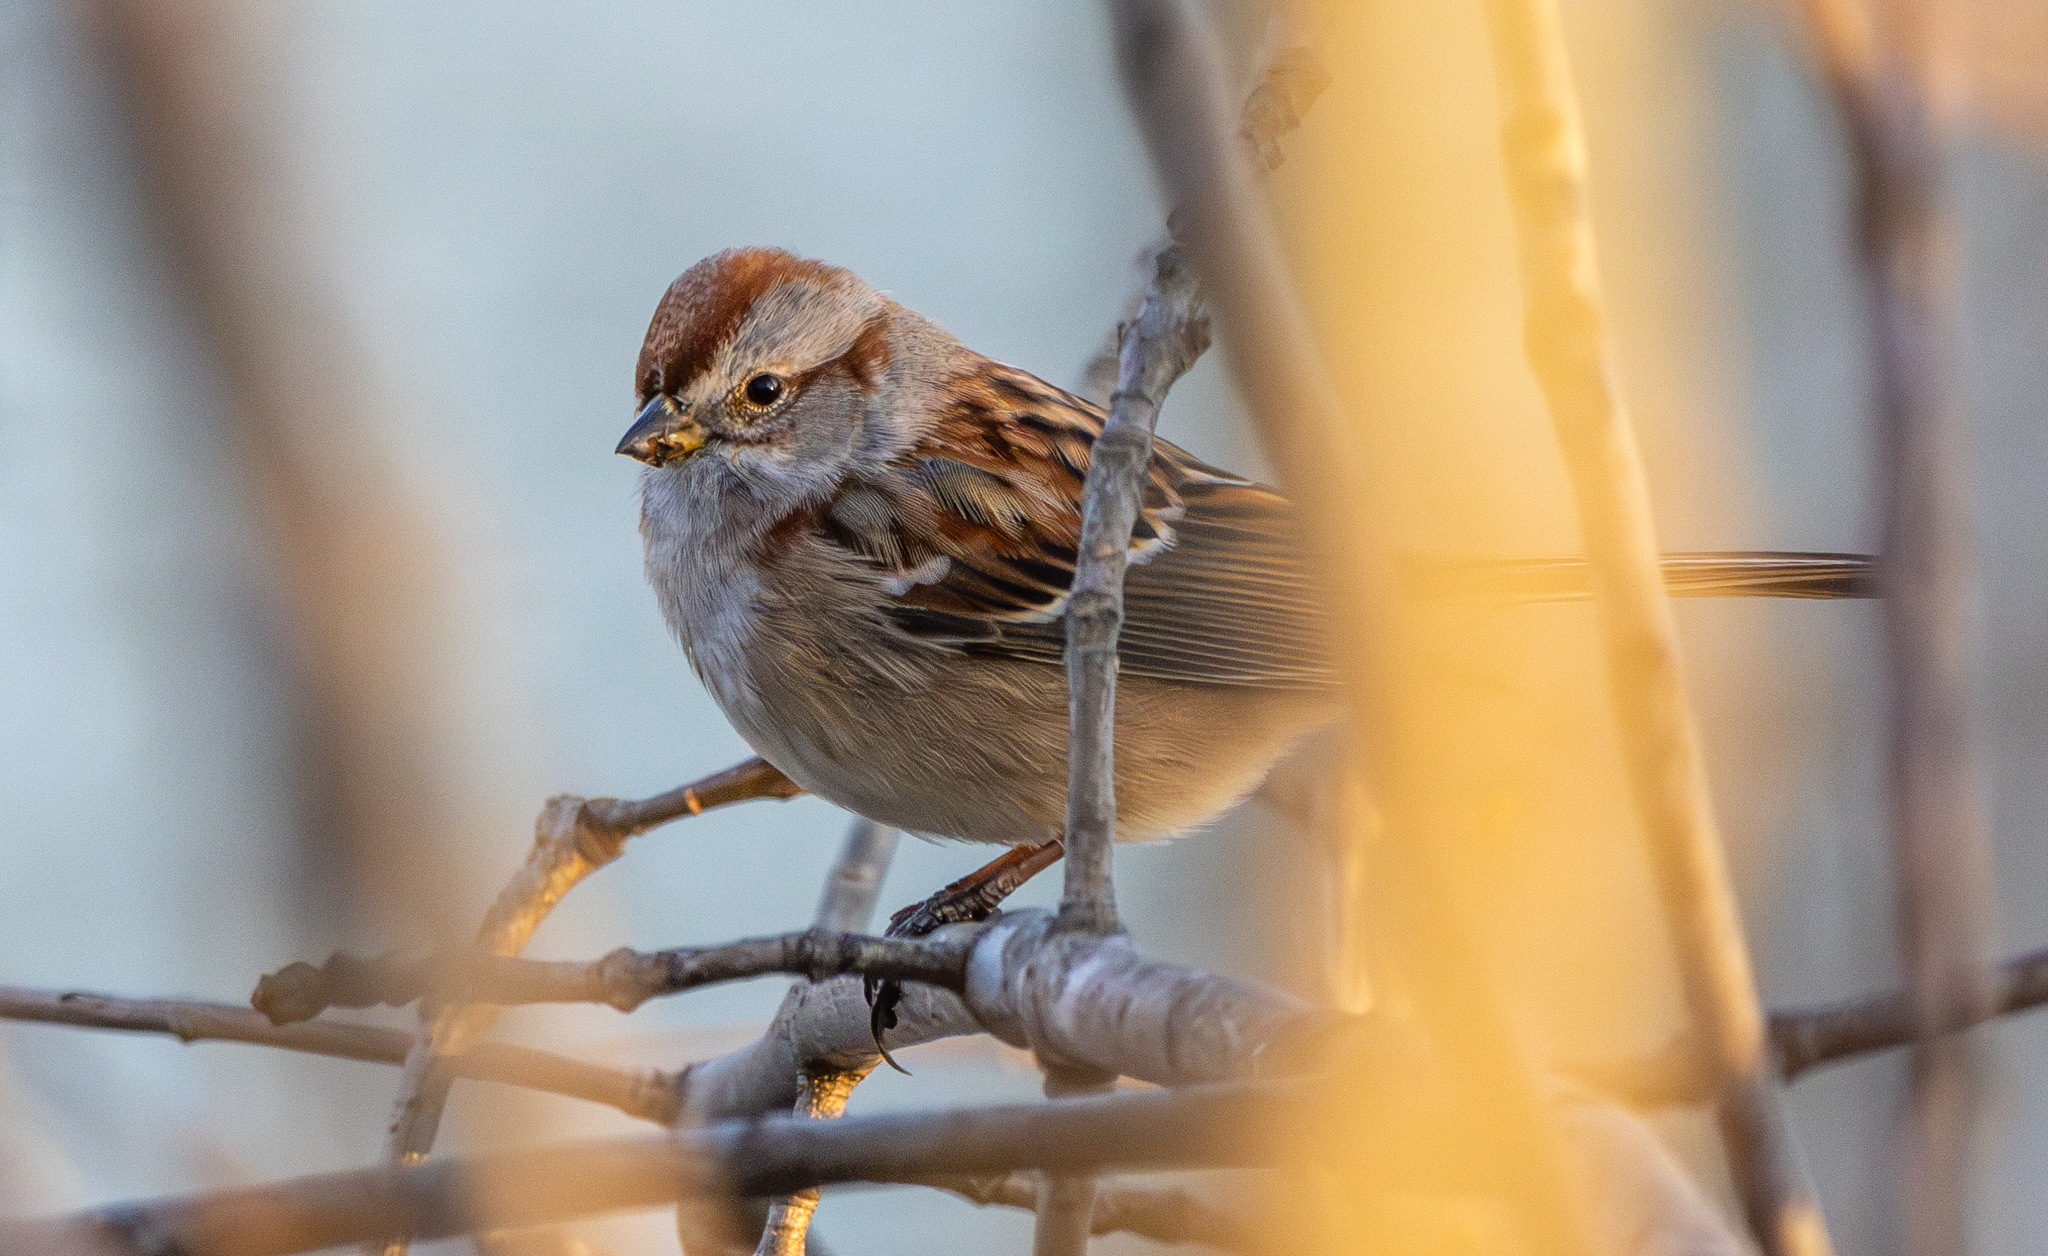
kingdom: Animalia
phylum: Chordata
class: Aves
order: Passeriformes
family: Passerellidae
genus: Spizelloides
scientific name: Spizelloides arborea
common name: American tree sparrow
